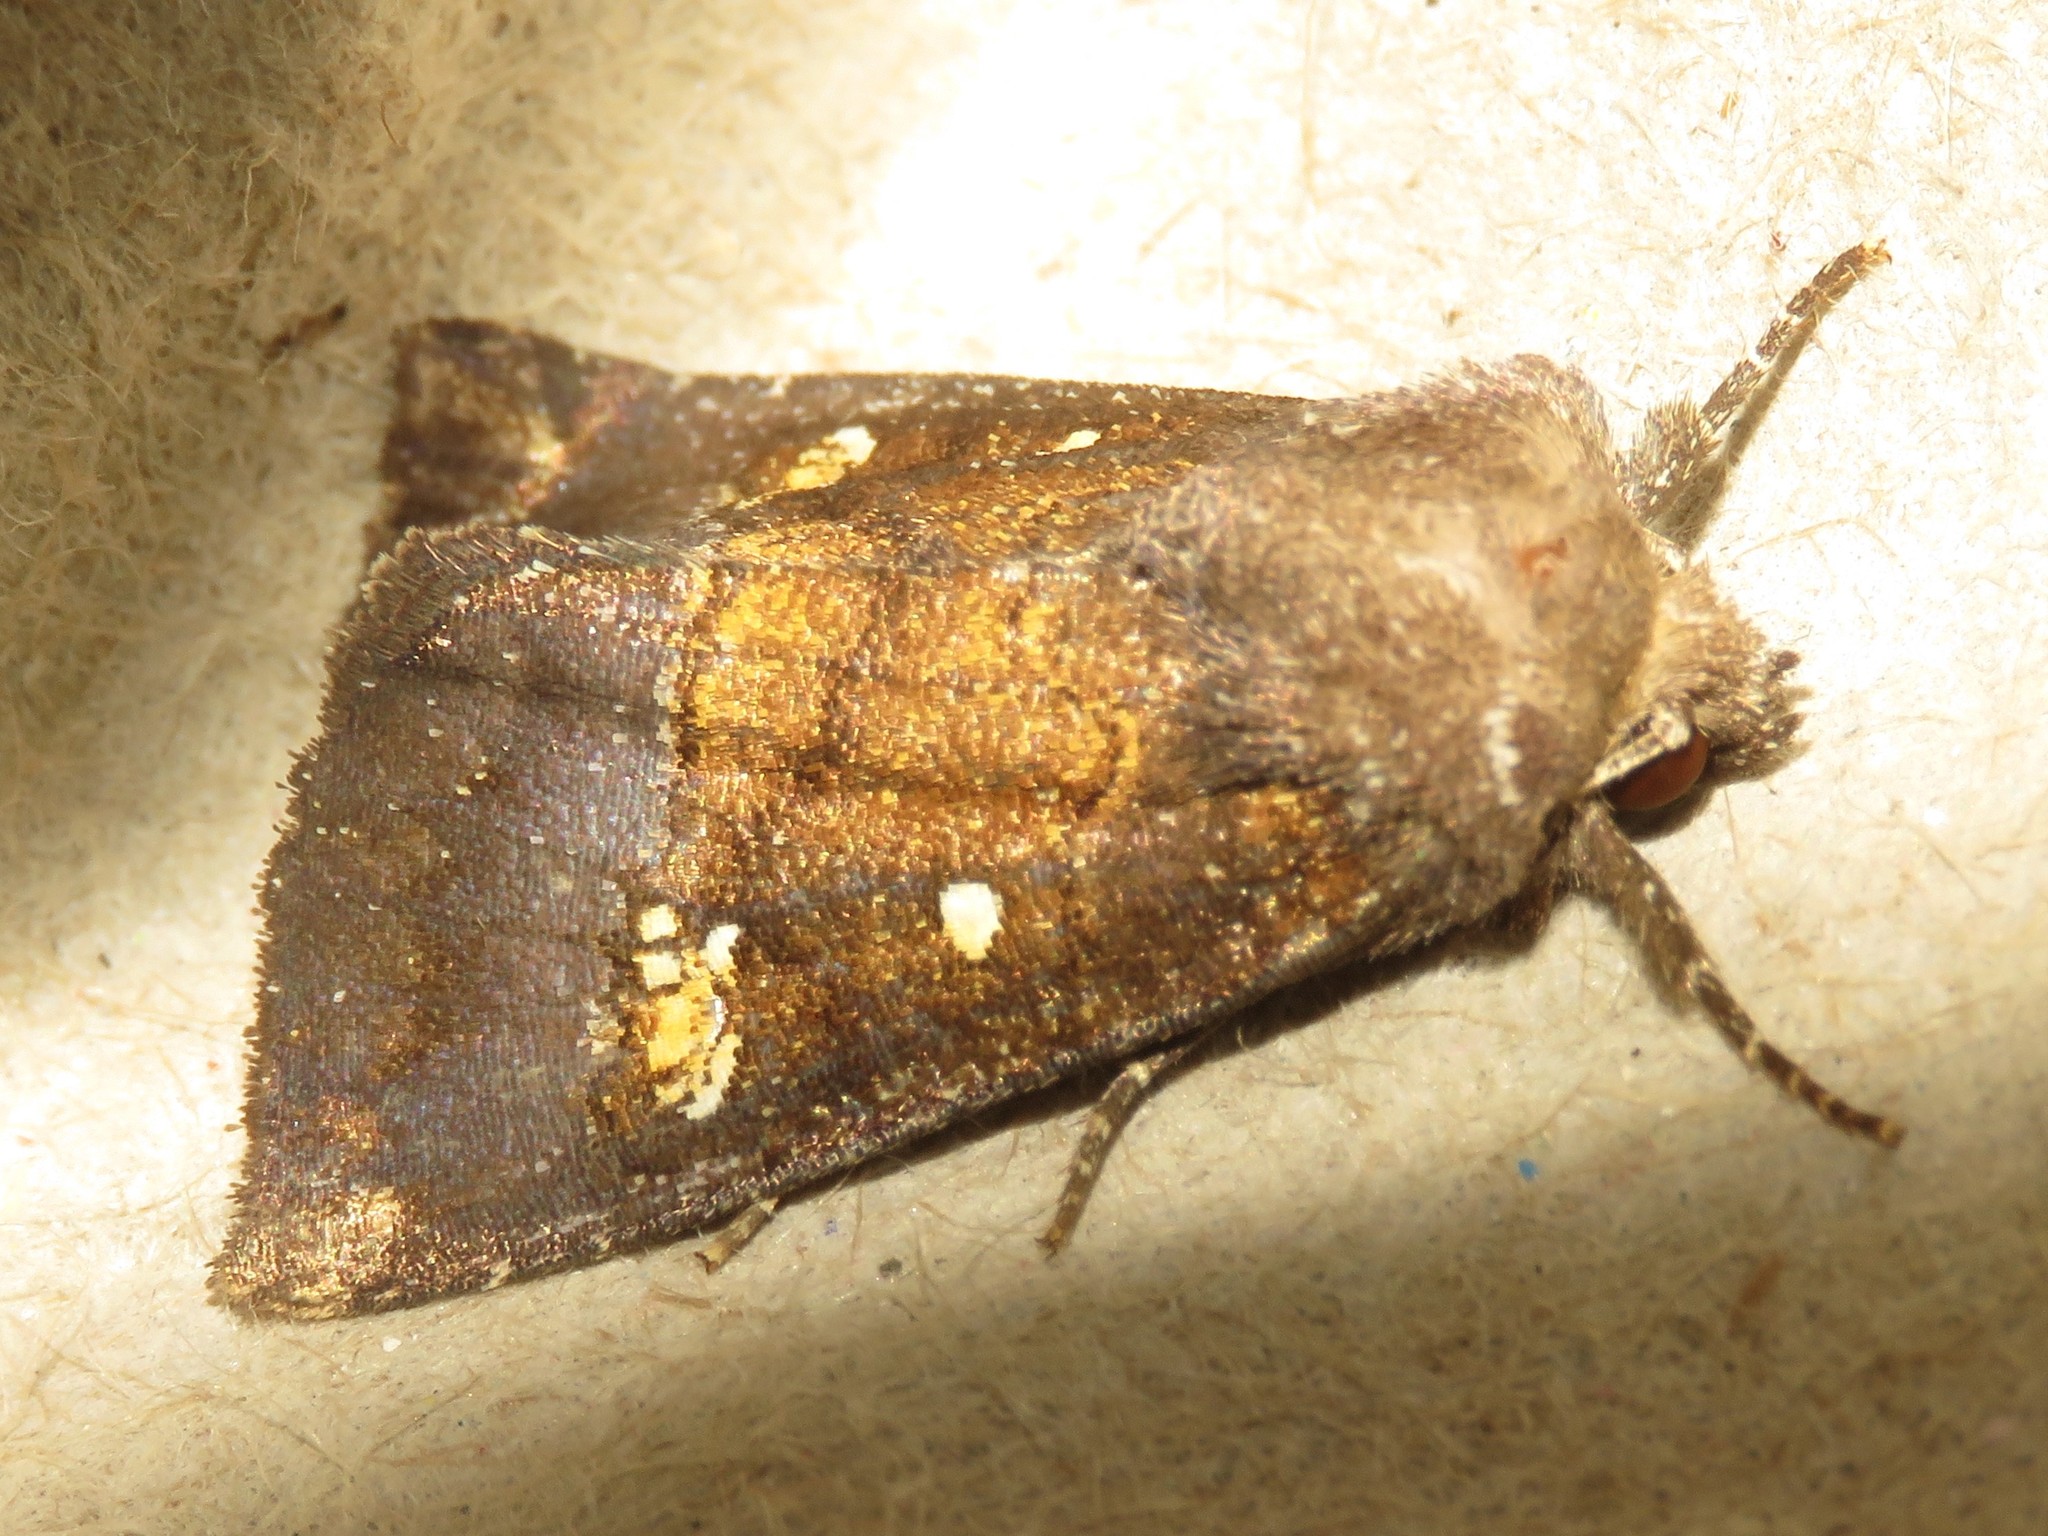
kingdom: Animalia
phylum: Arthropoda
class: Insecta
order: Lepidoptera
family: Noctuidae
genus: Papaipema
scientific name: Papaipema nelita
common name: Coneflower borer moth
